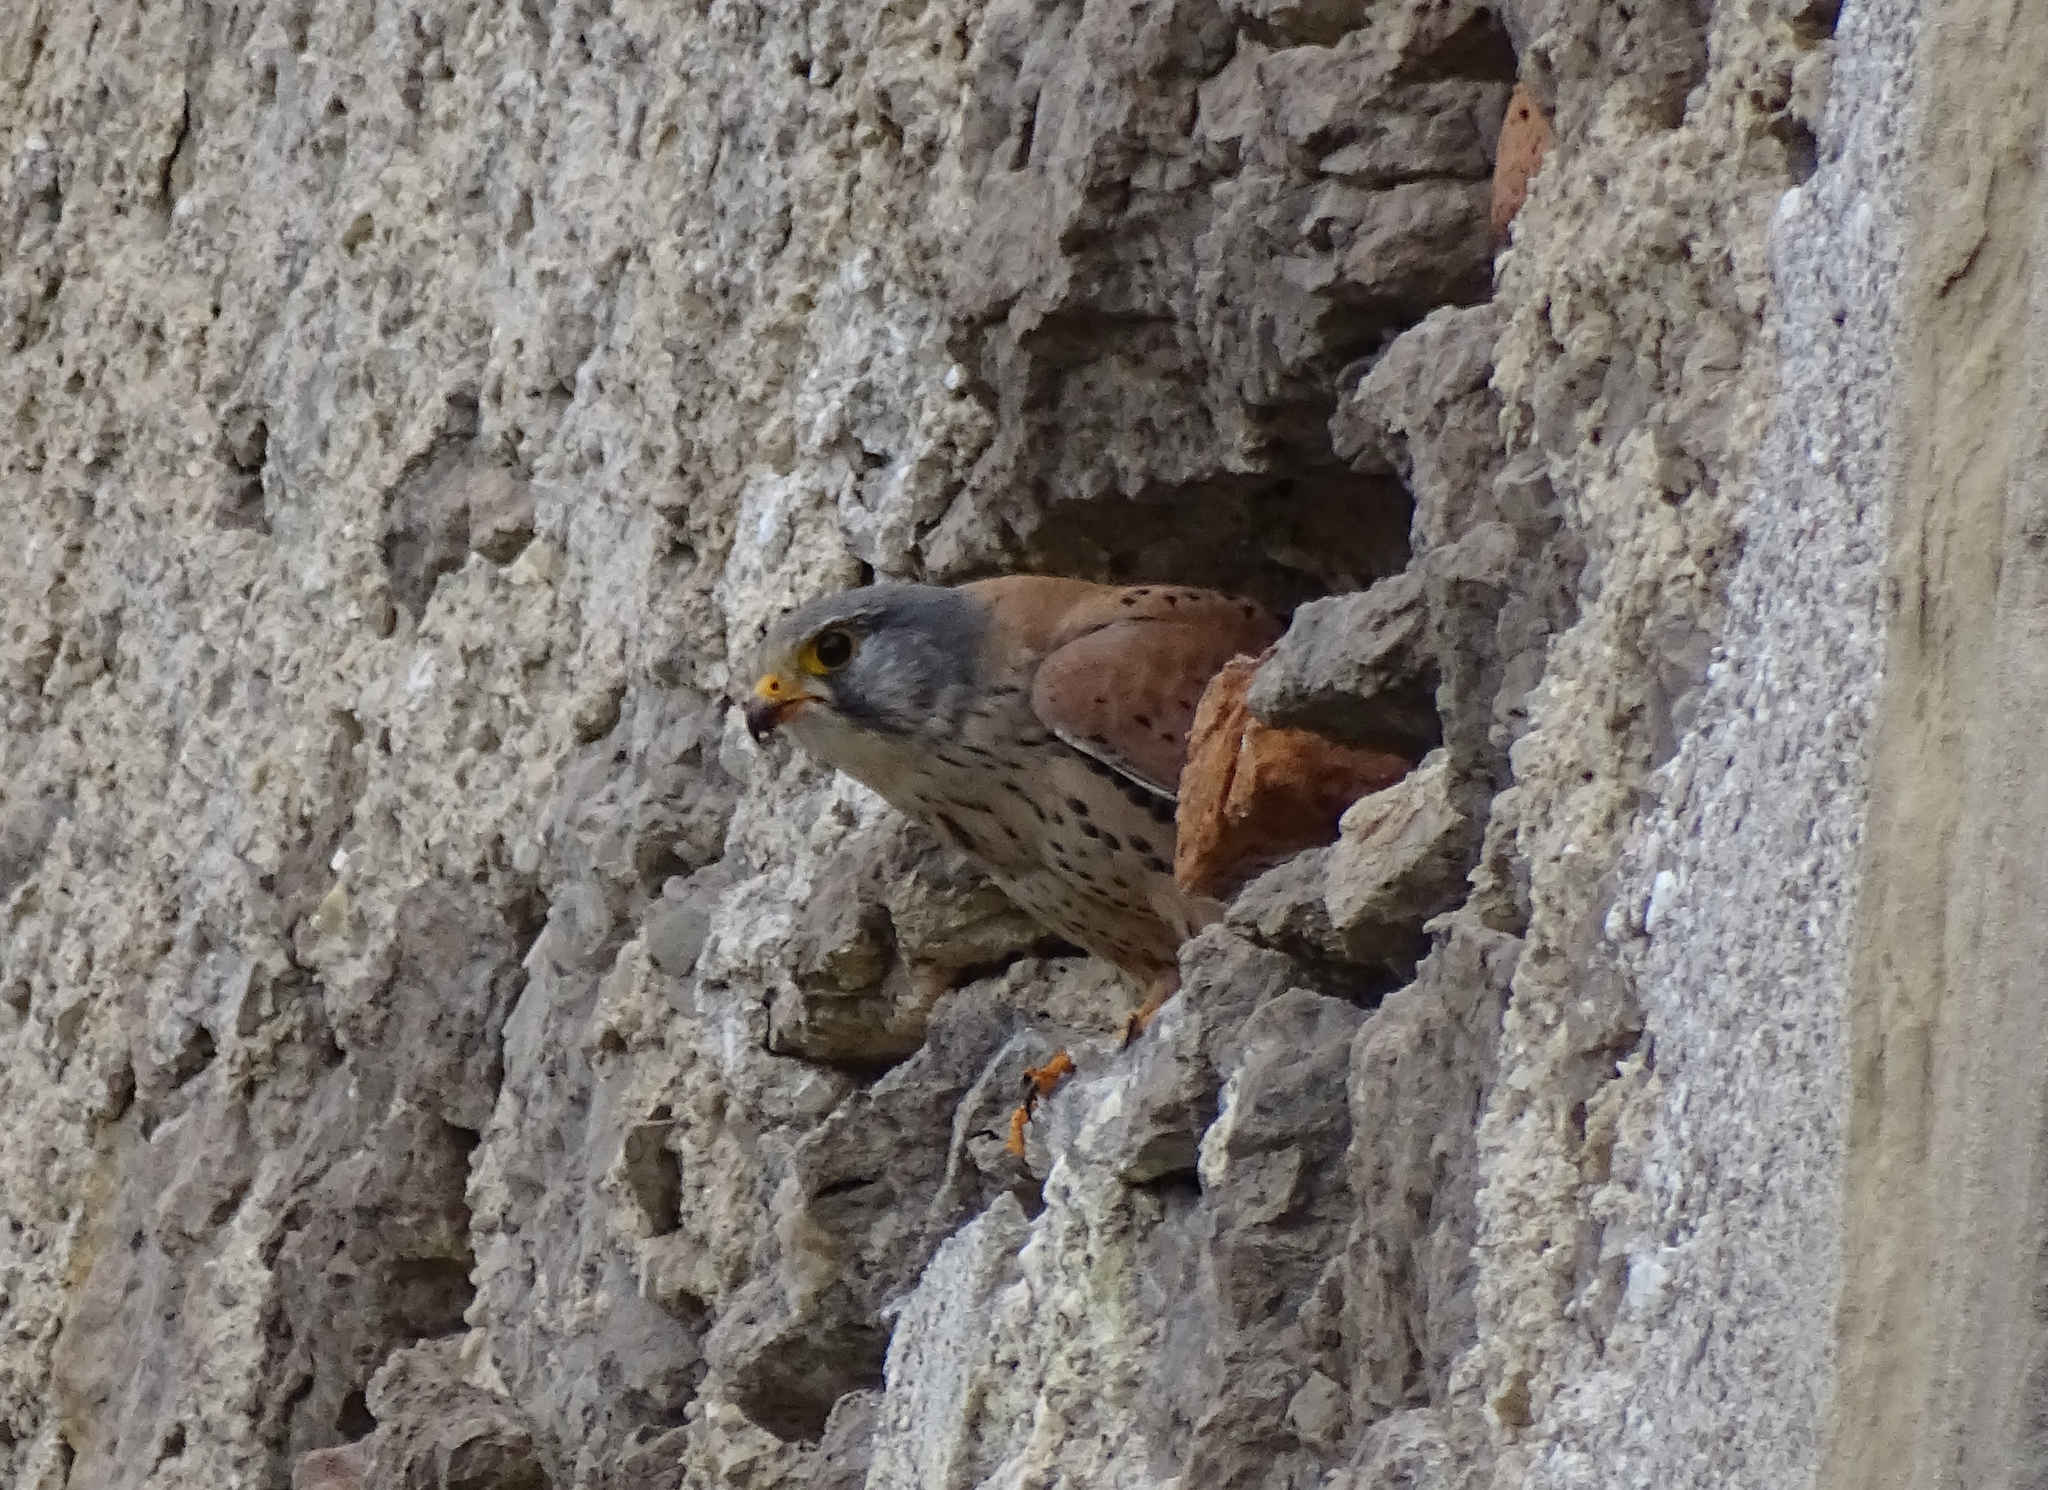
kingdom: Animalia
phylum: Chordata
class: Aves
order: Falconiformes
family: Falconidae
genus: Falco
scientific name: Falco tinnunculus
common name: Common kestrel
